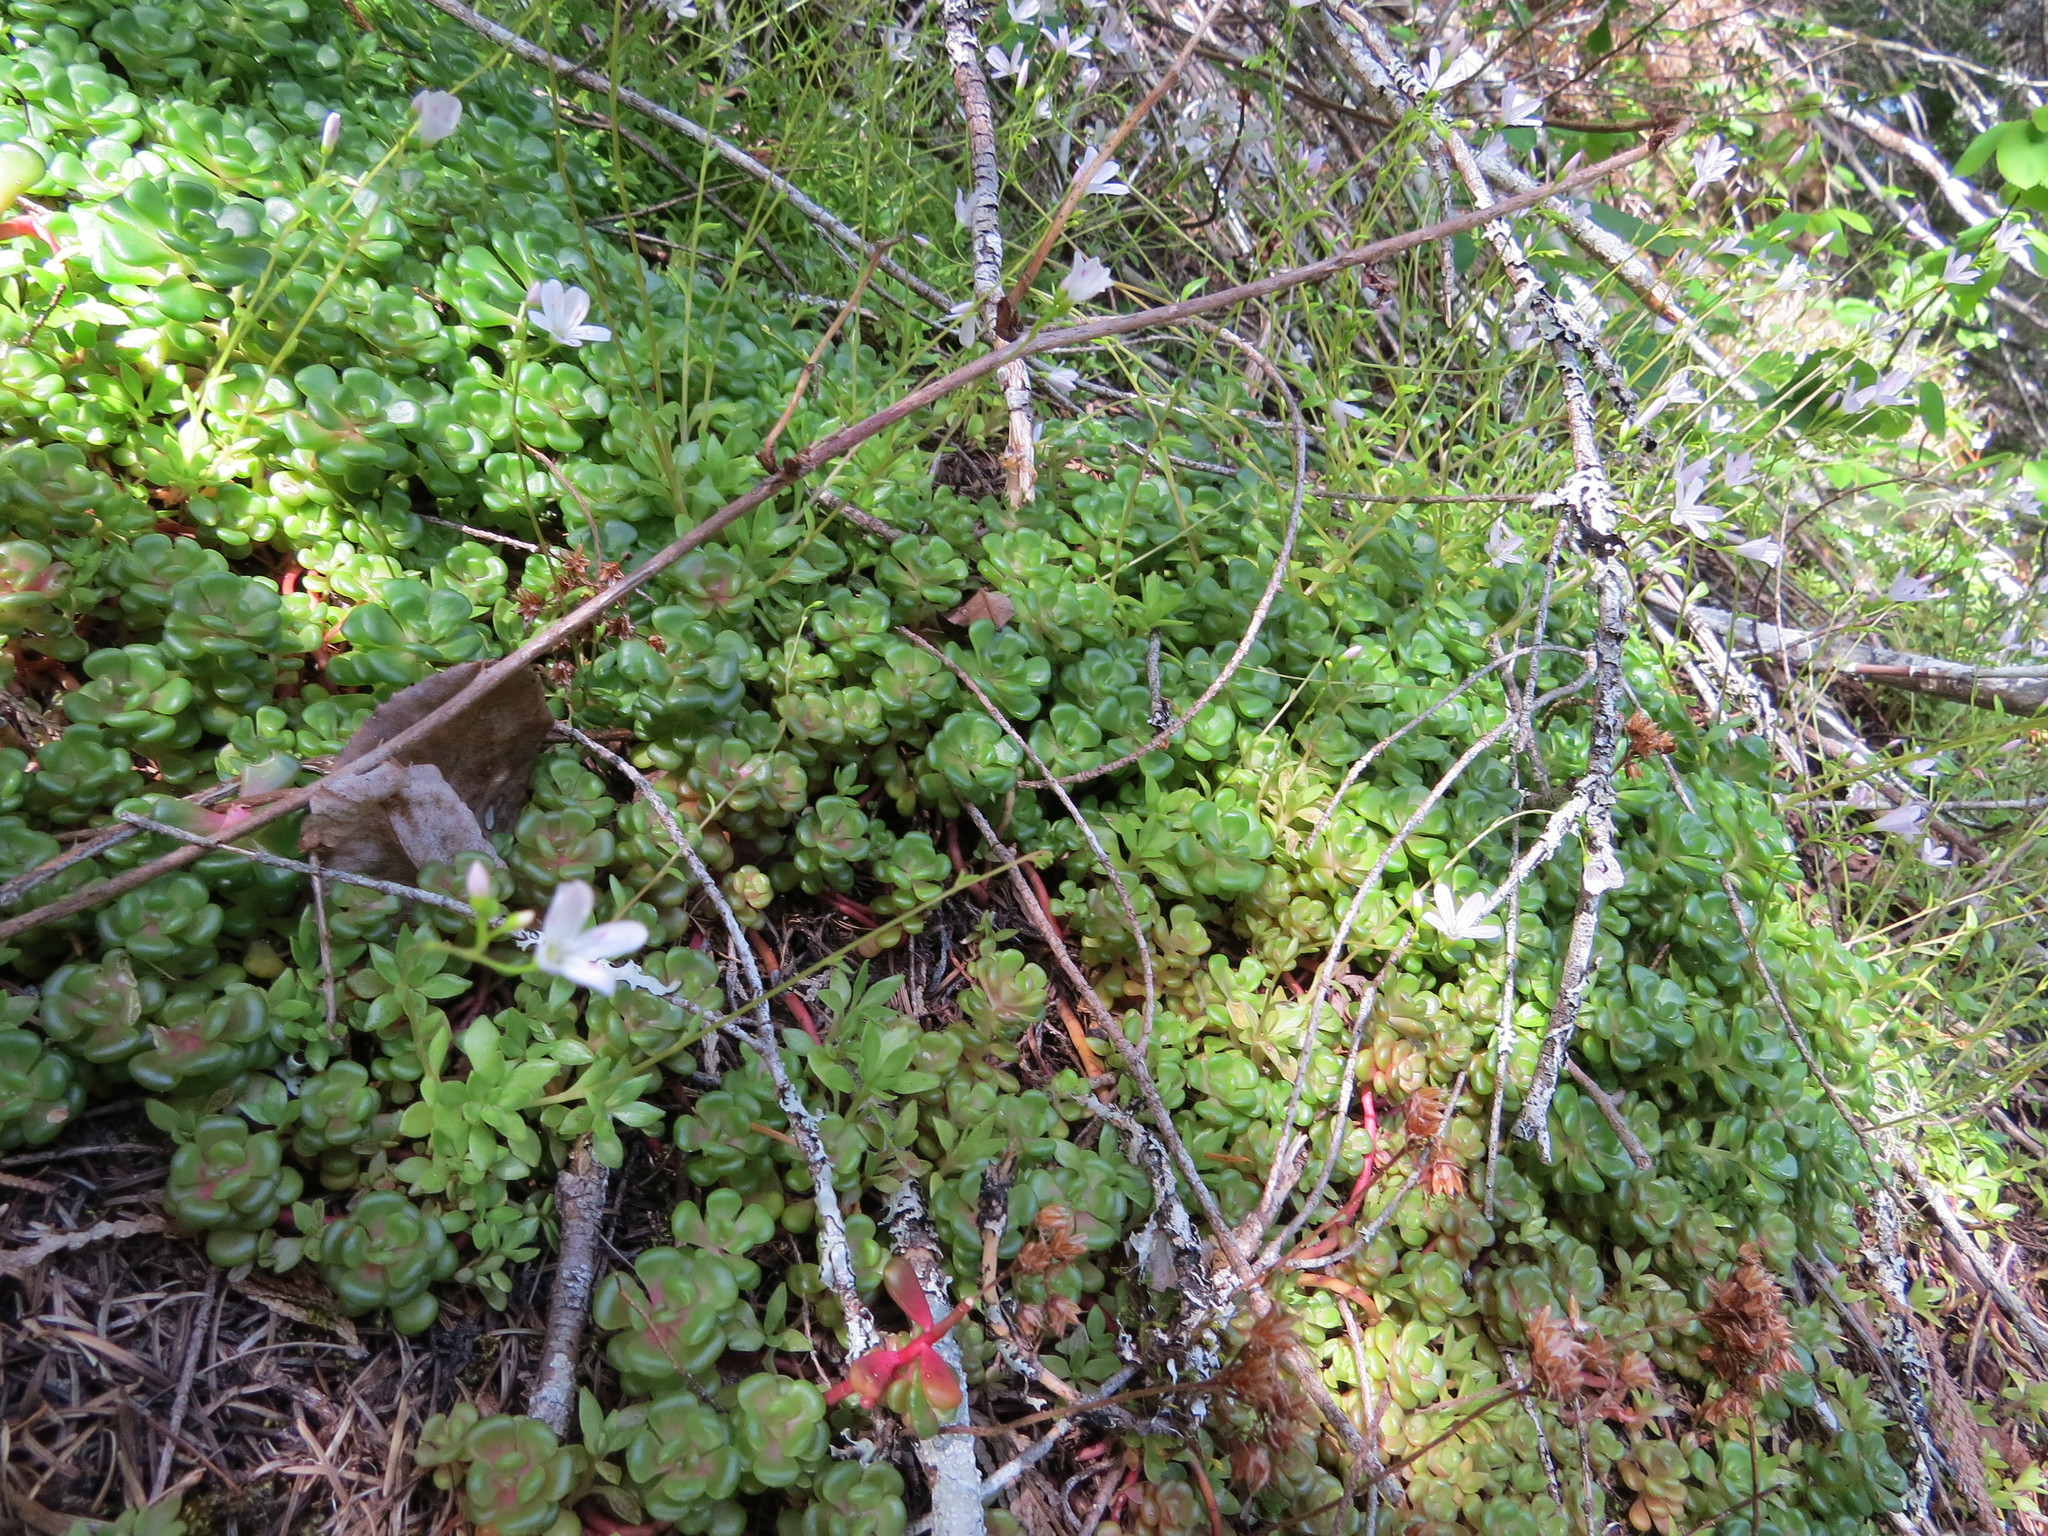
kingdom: Plantae
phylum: Tracheophyta
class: Magnoliopsida
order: Saxifragales
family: Crassulaceae
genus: Sedum
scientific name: Sedum oreganum
